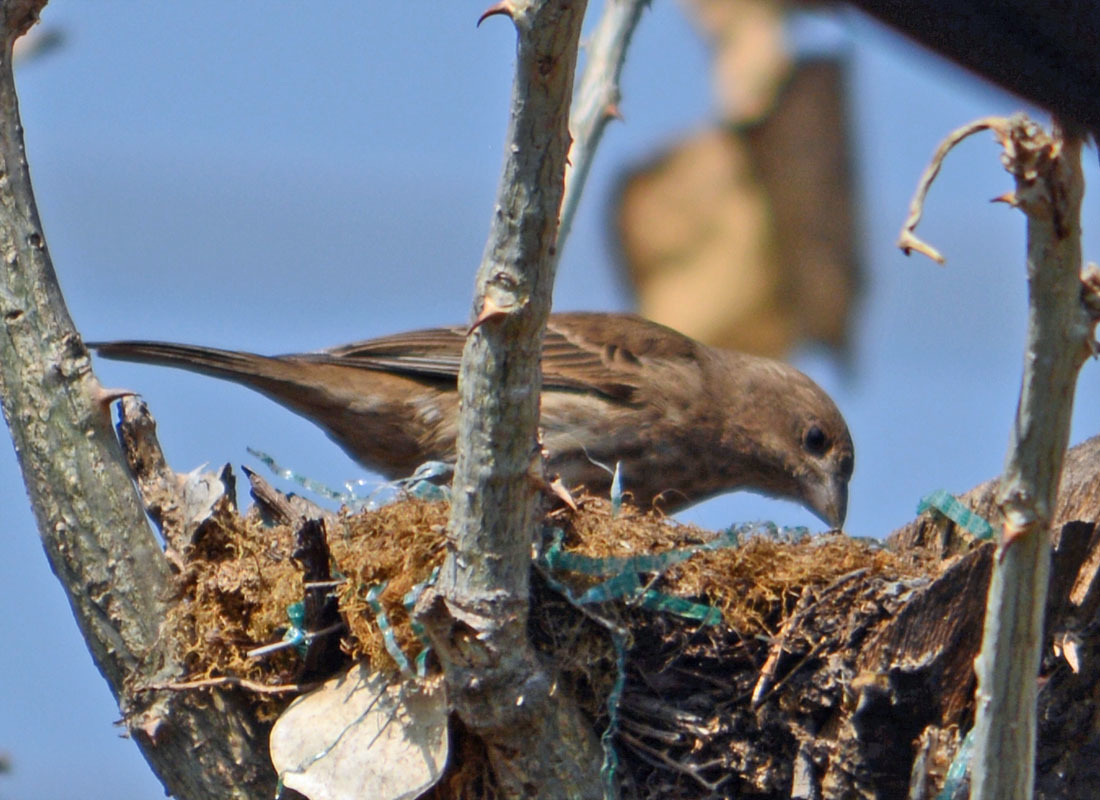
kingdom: Animalia
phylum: Chordata
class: Aves
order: Passeriformes
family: Fringillidae
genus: Haemorhous
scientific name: Haemorhous mexicanus
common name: House finch
